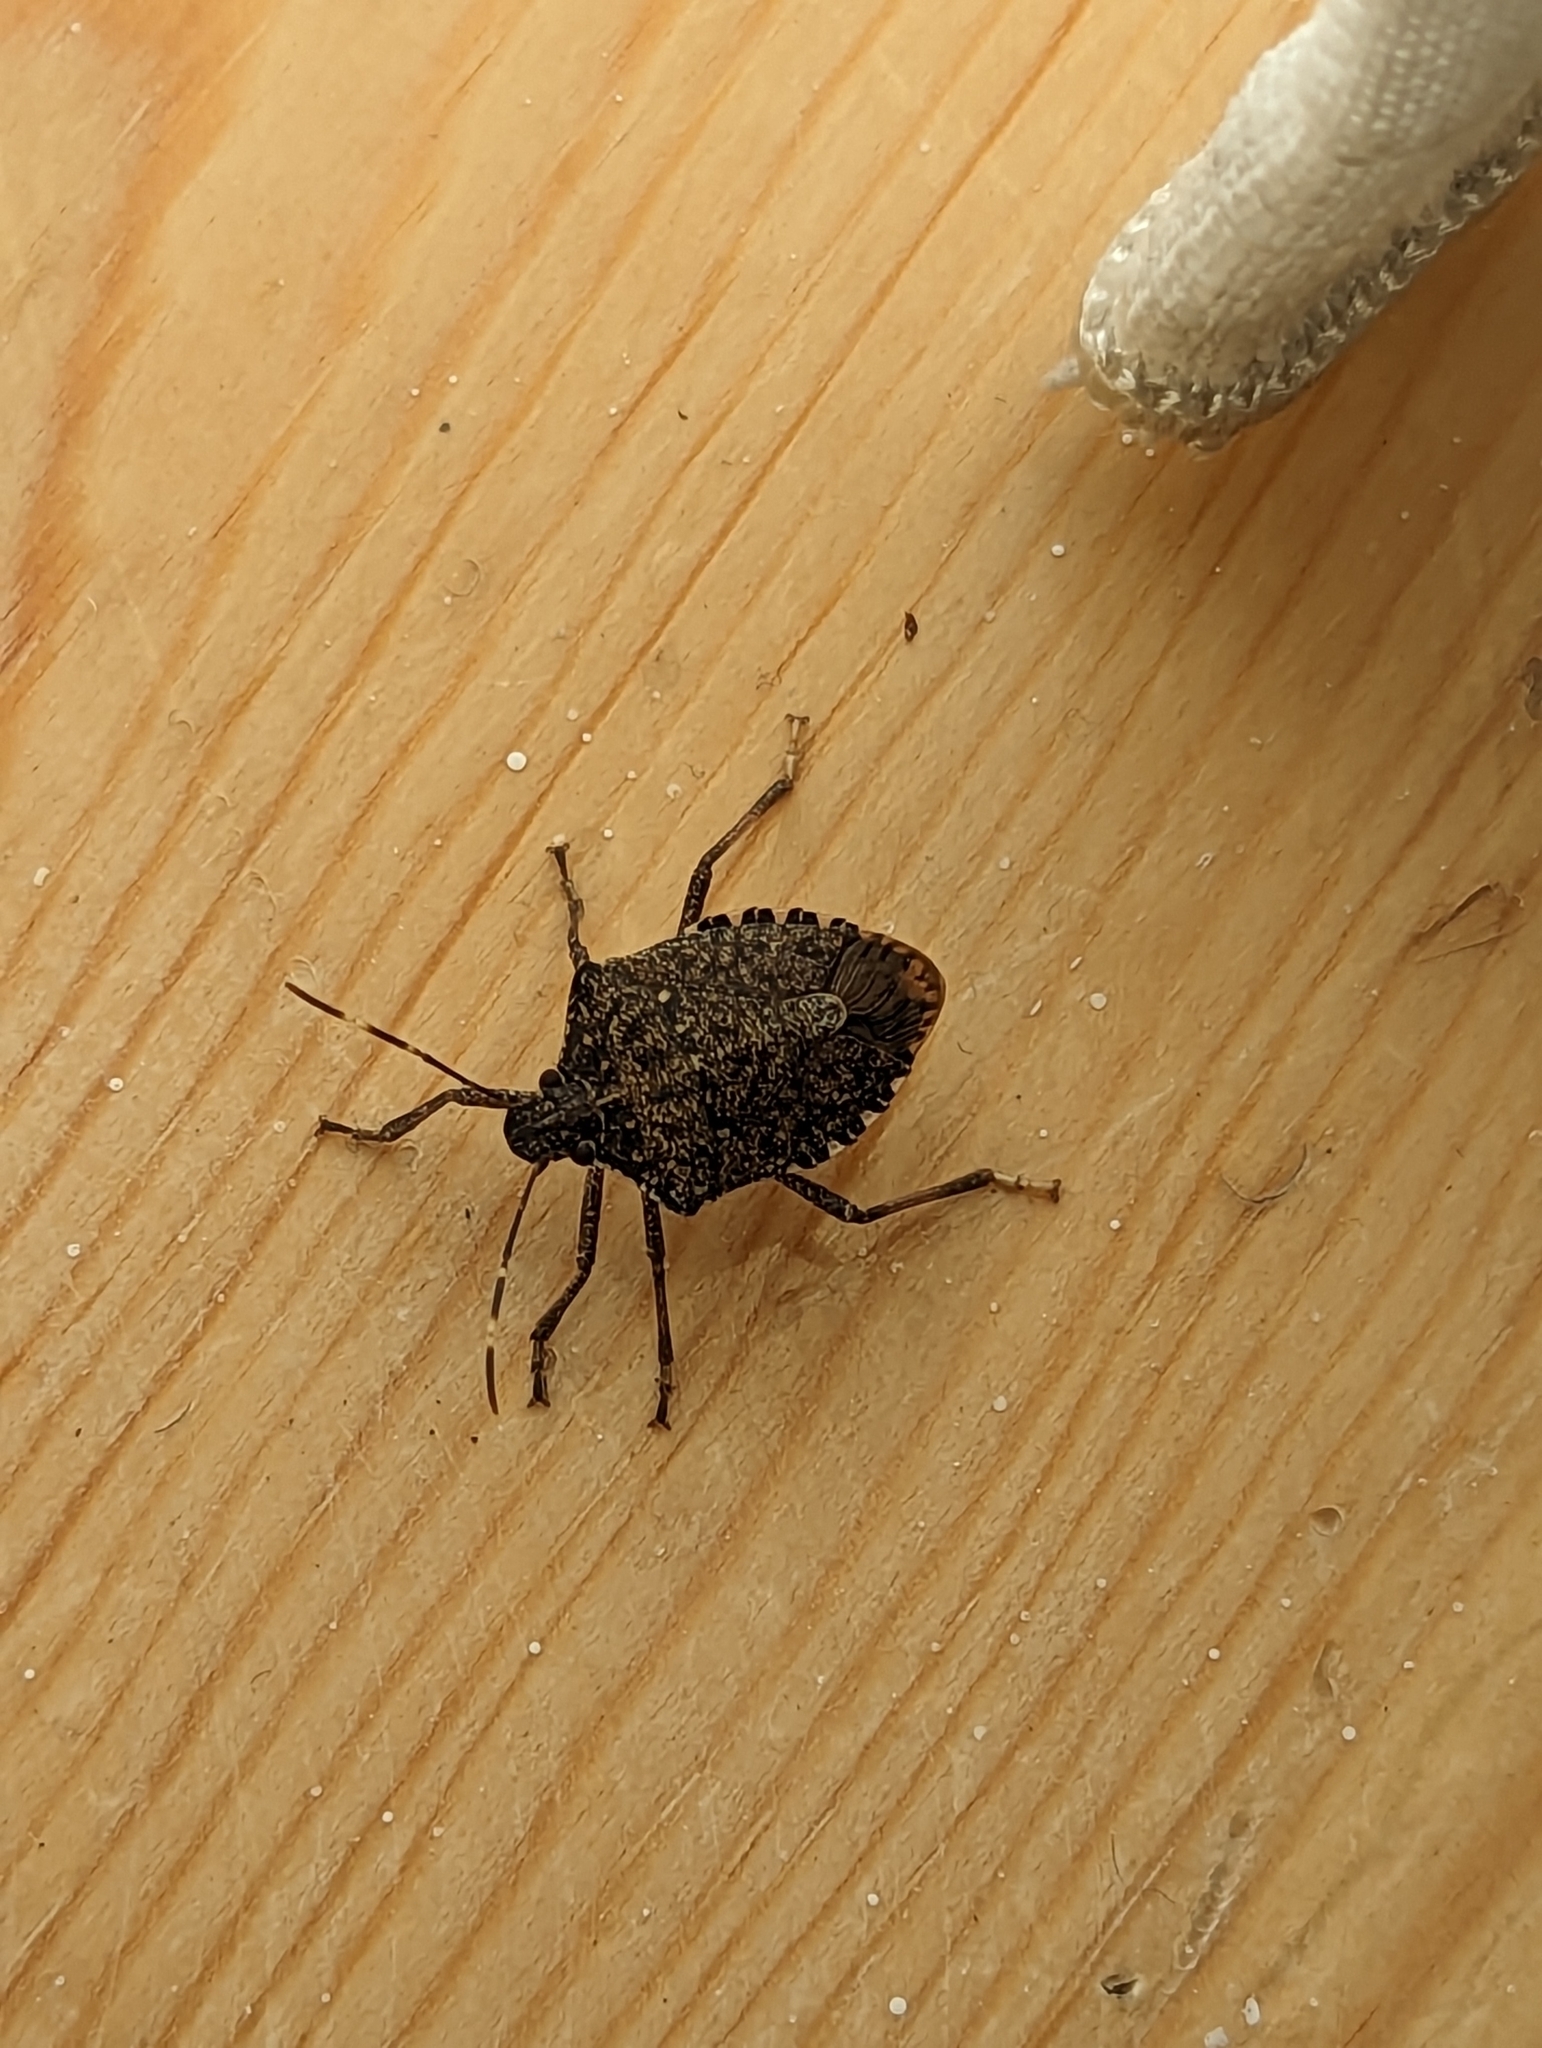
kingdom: Animalia
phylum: Arthropoda
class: Insecta
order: Hemiptera
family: Pentatomidae
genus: Halyomorpha
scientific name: Halyomorpha halys
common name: Brown marmorated stink bug
